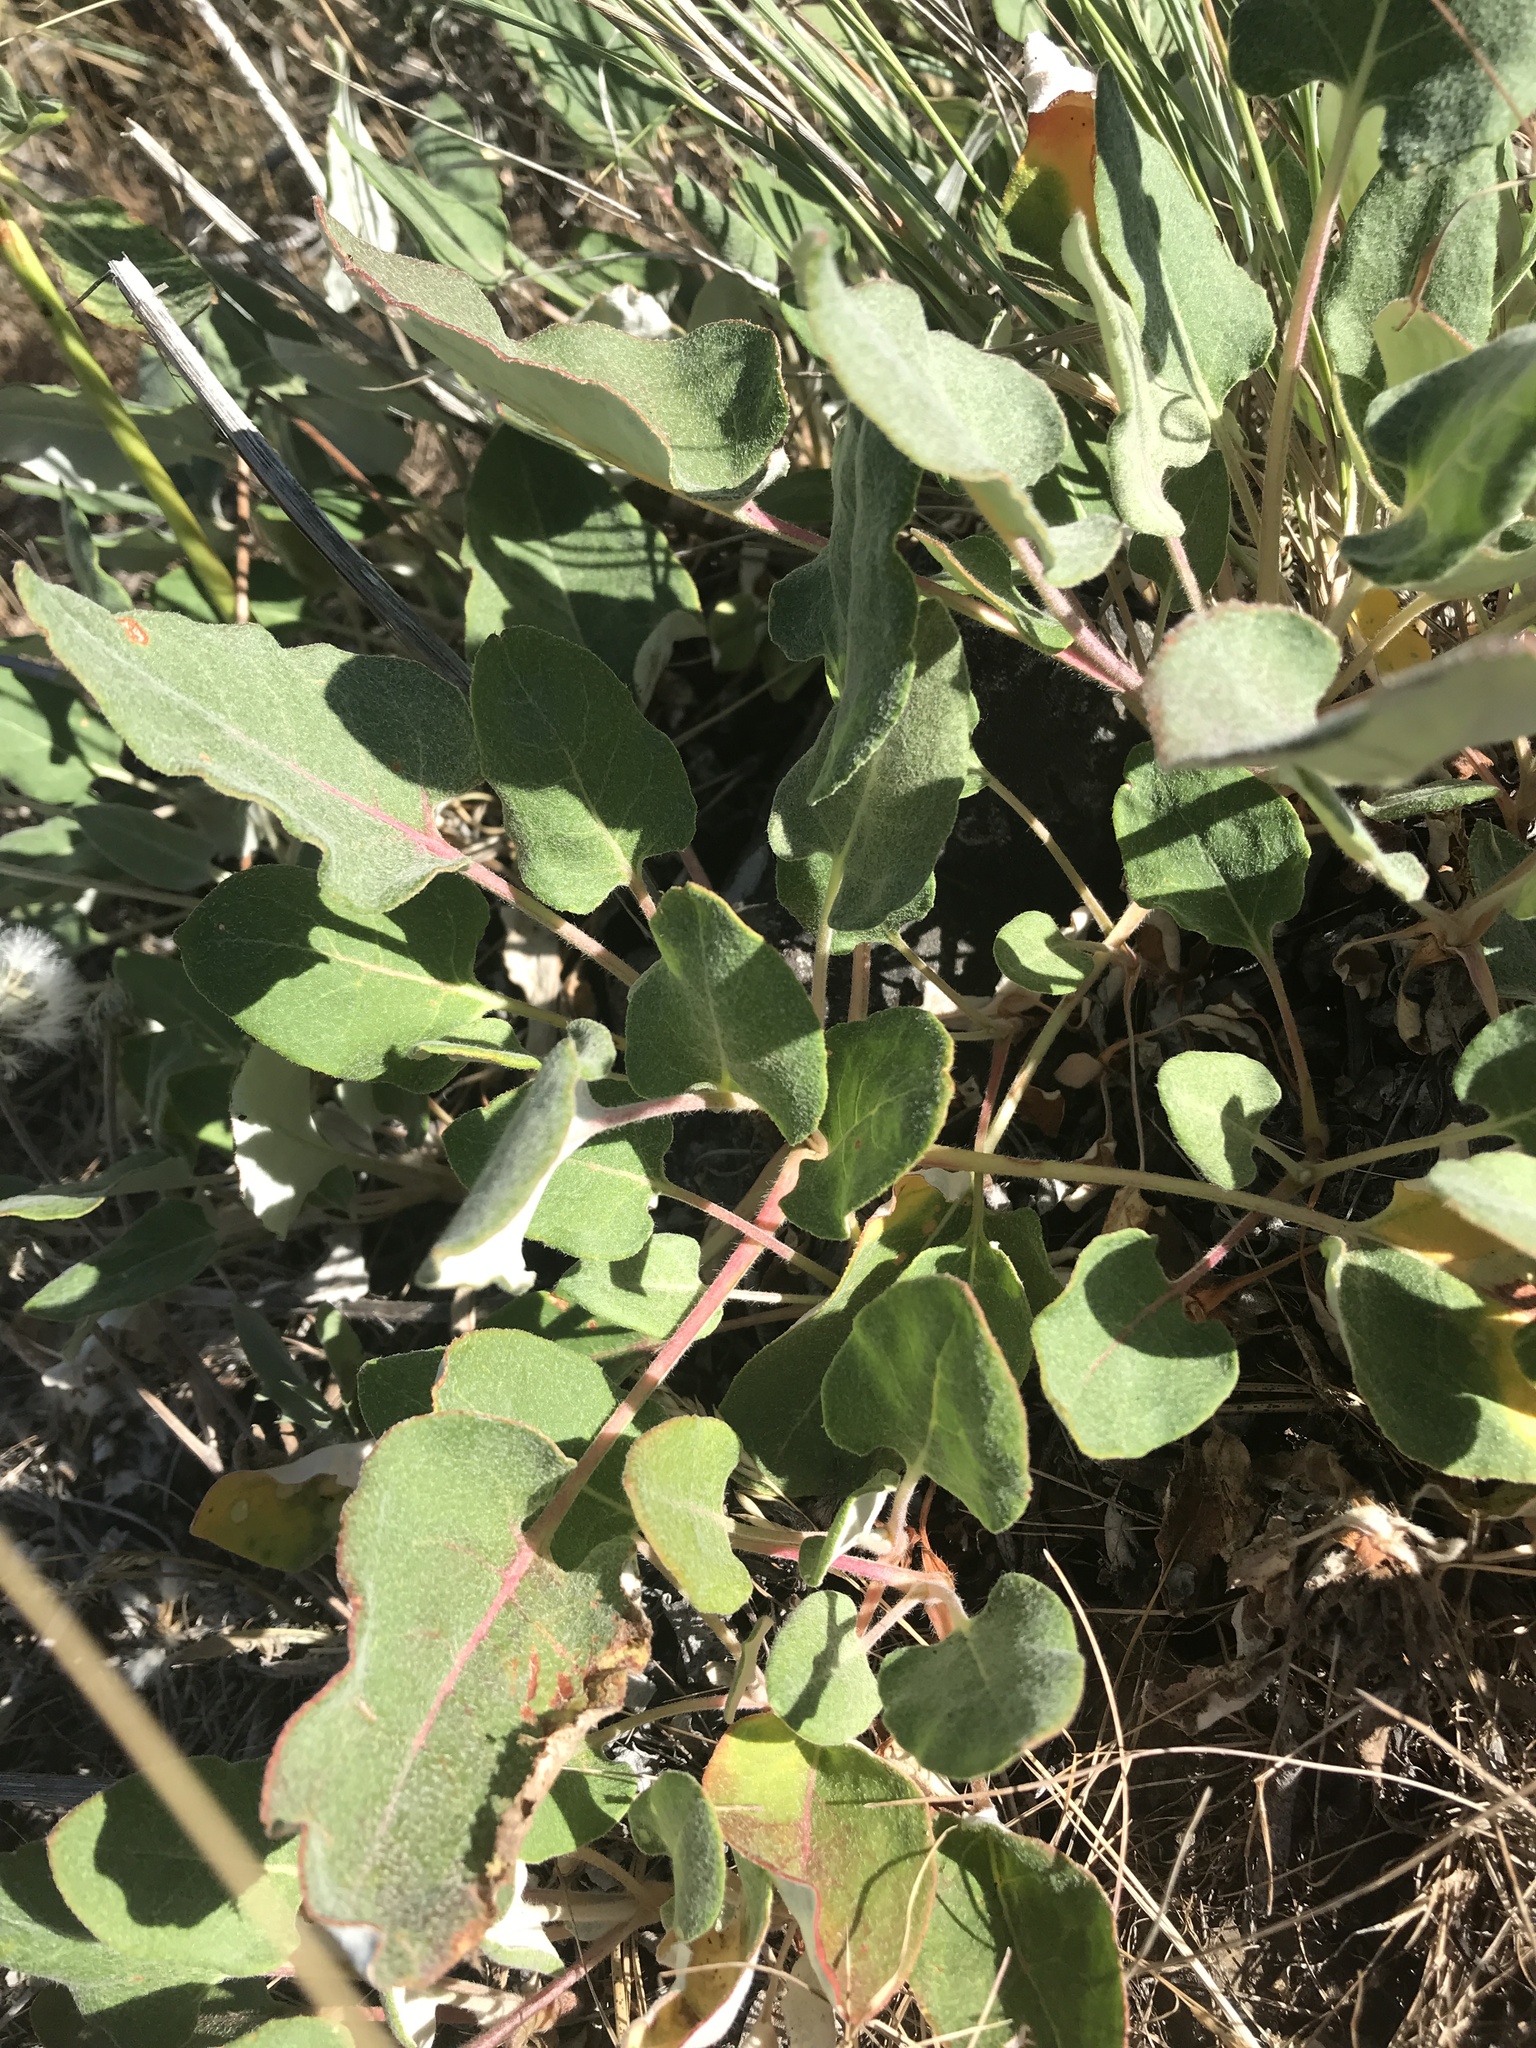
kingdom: Plantae
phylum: Tracheophyta
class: Magnoliopsida
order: Caryophyllales
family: Polygonaceae
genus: Eriogonum
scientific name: Eriogonum compositum
